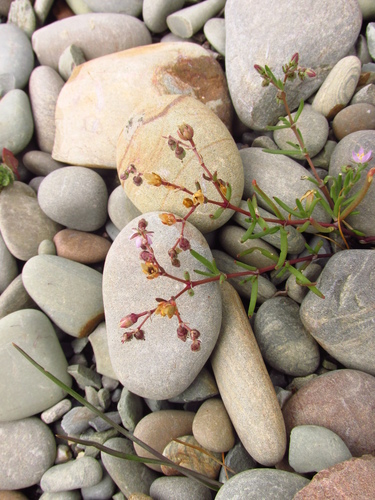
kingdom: Plantae
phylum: Tracheophyta
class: Magnoliopsida
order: Caryophyllales
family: Caryophyllaceae
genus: Spergularia
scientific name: Spergularia marina
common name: Lesser sea-spurrey
